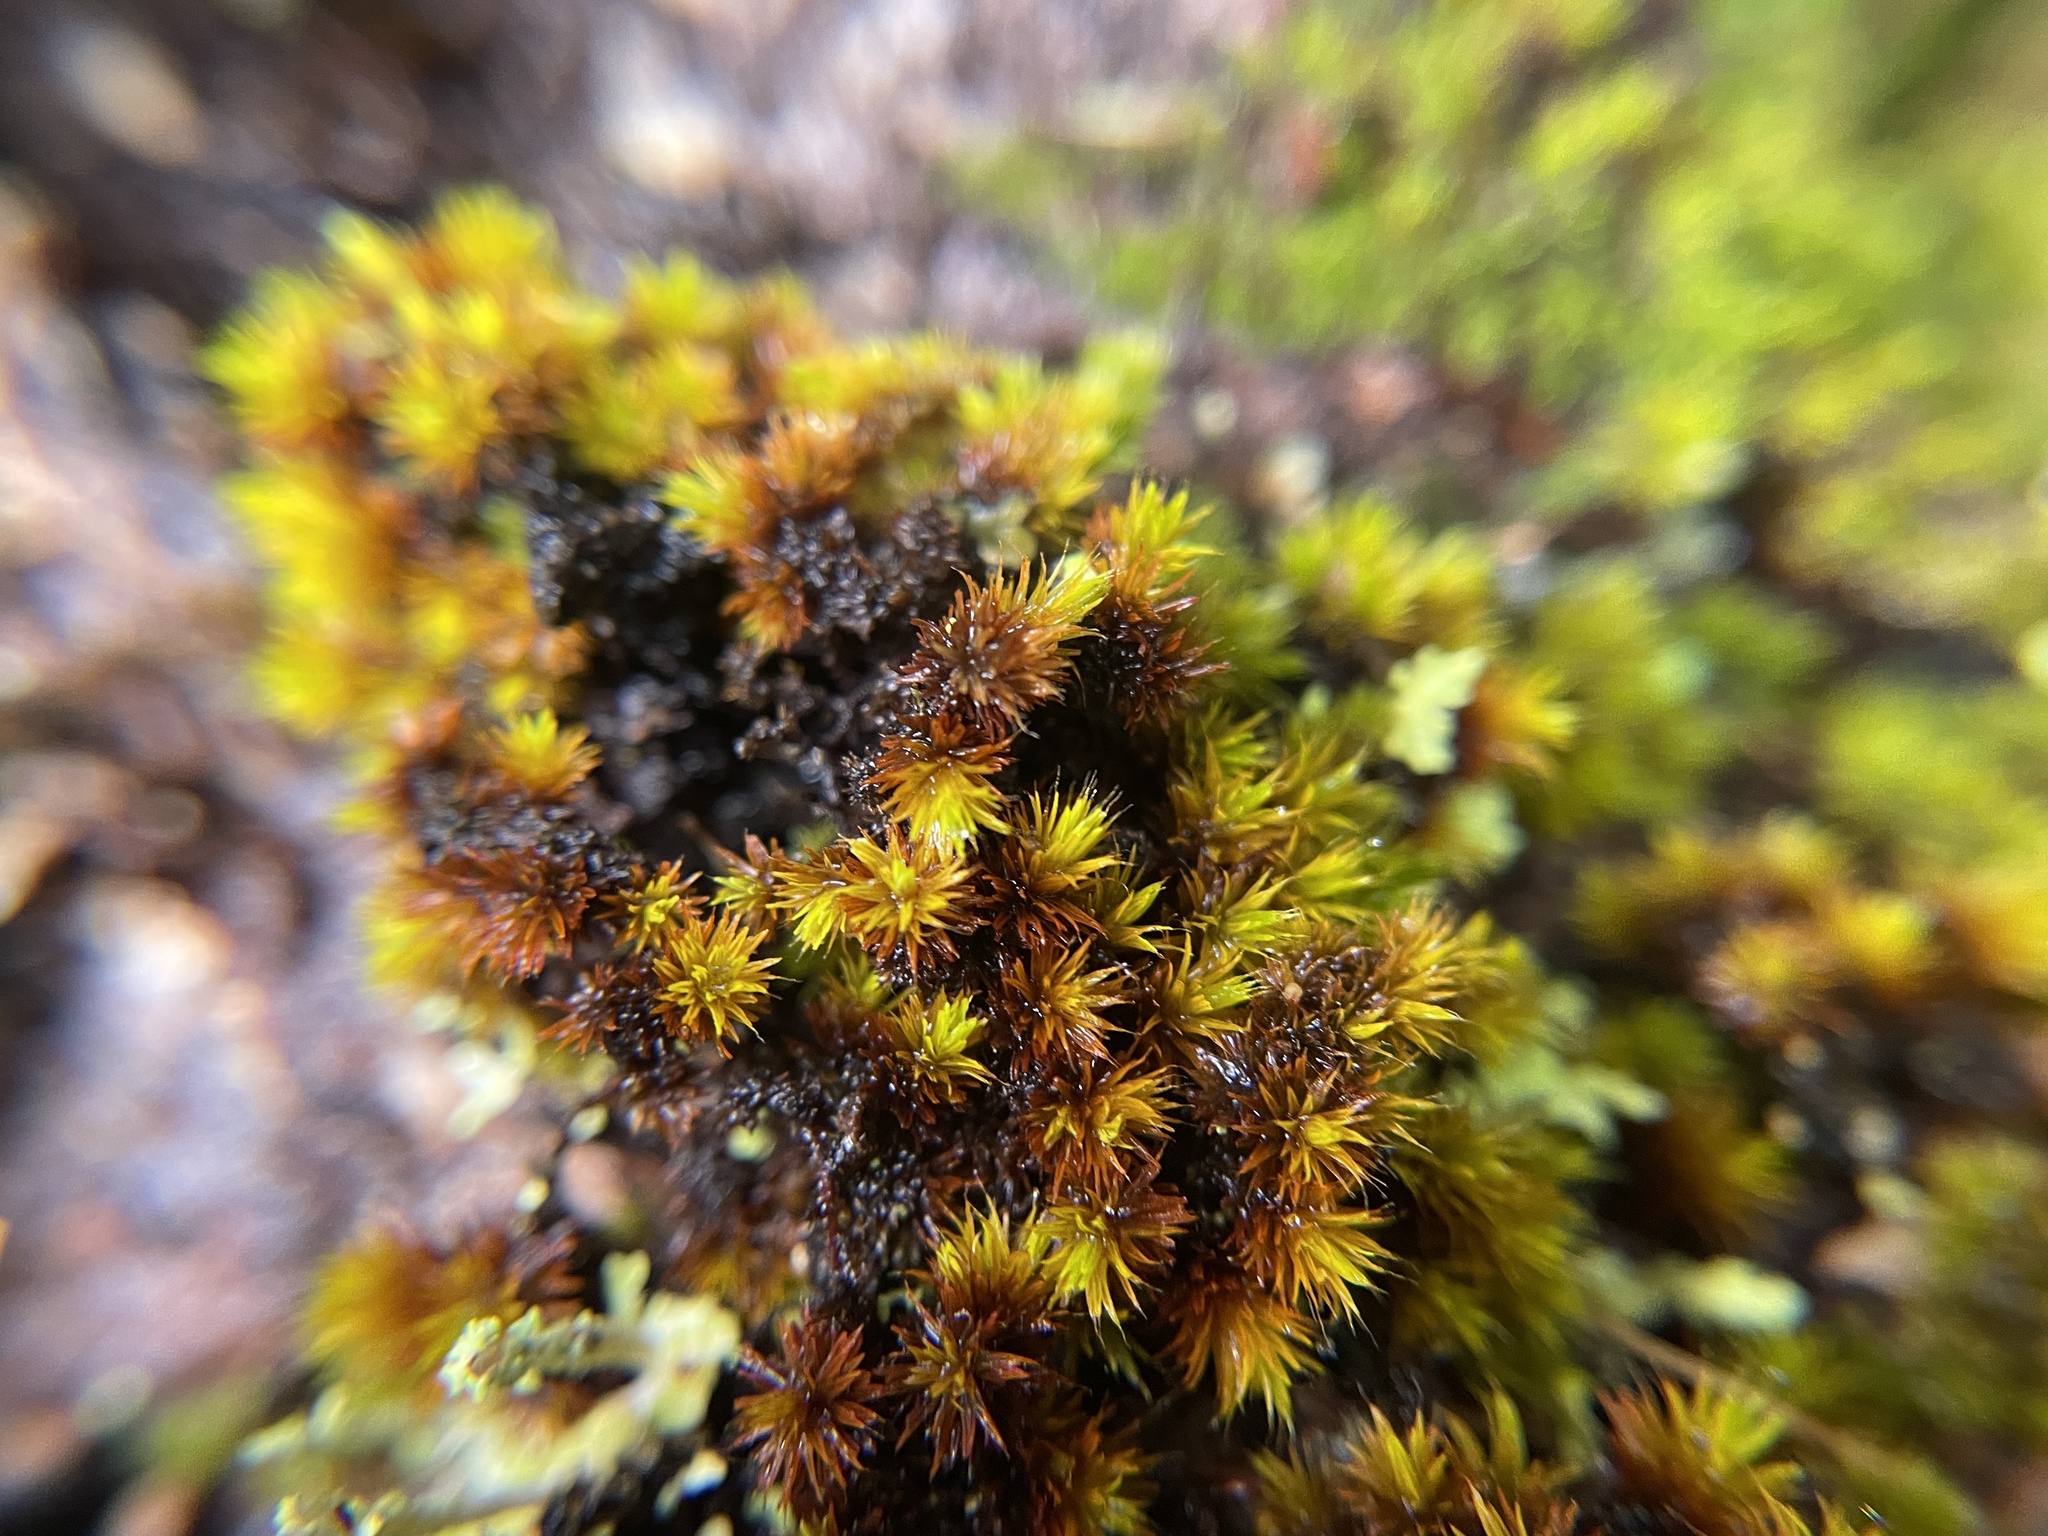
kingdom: Plantae
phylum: Bryophyta
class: Bryopsida
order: Orthotrichales
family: Orthotrichaceae
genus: Macromitrium
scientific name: Macromitrium piliferum
